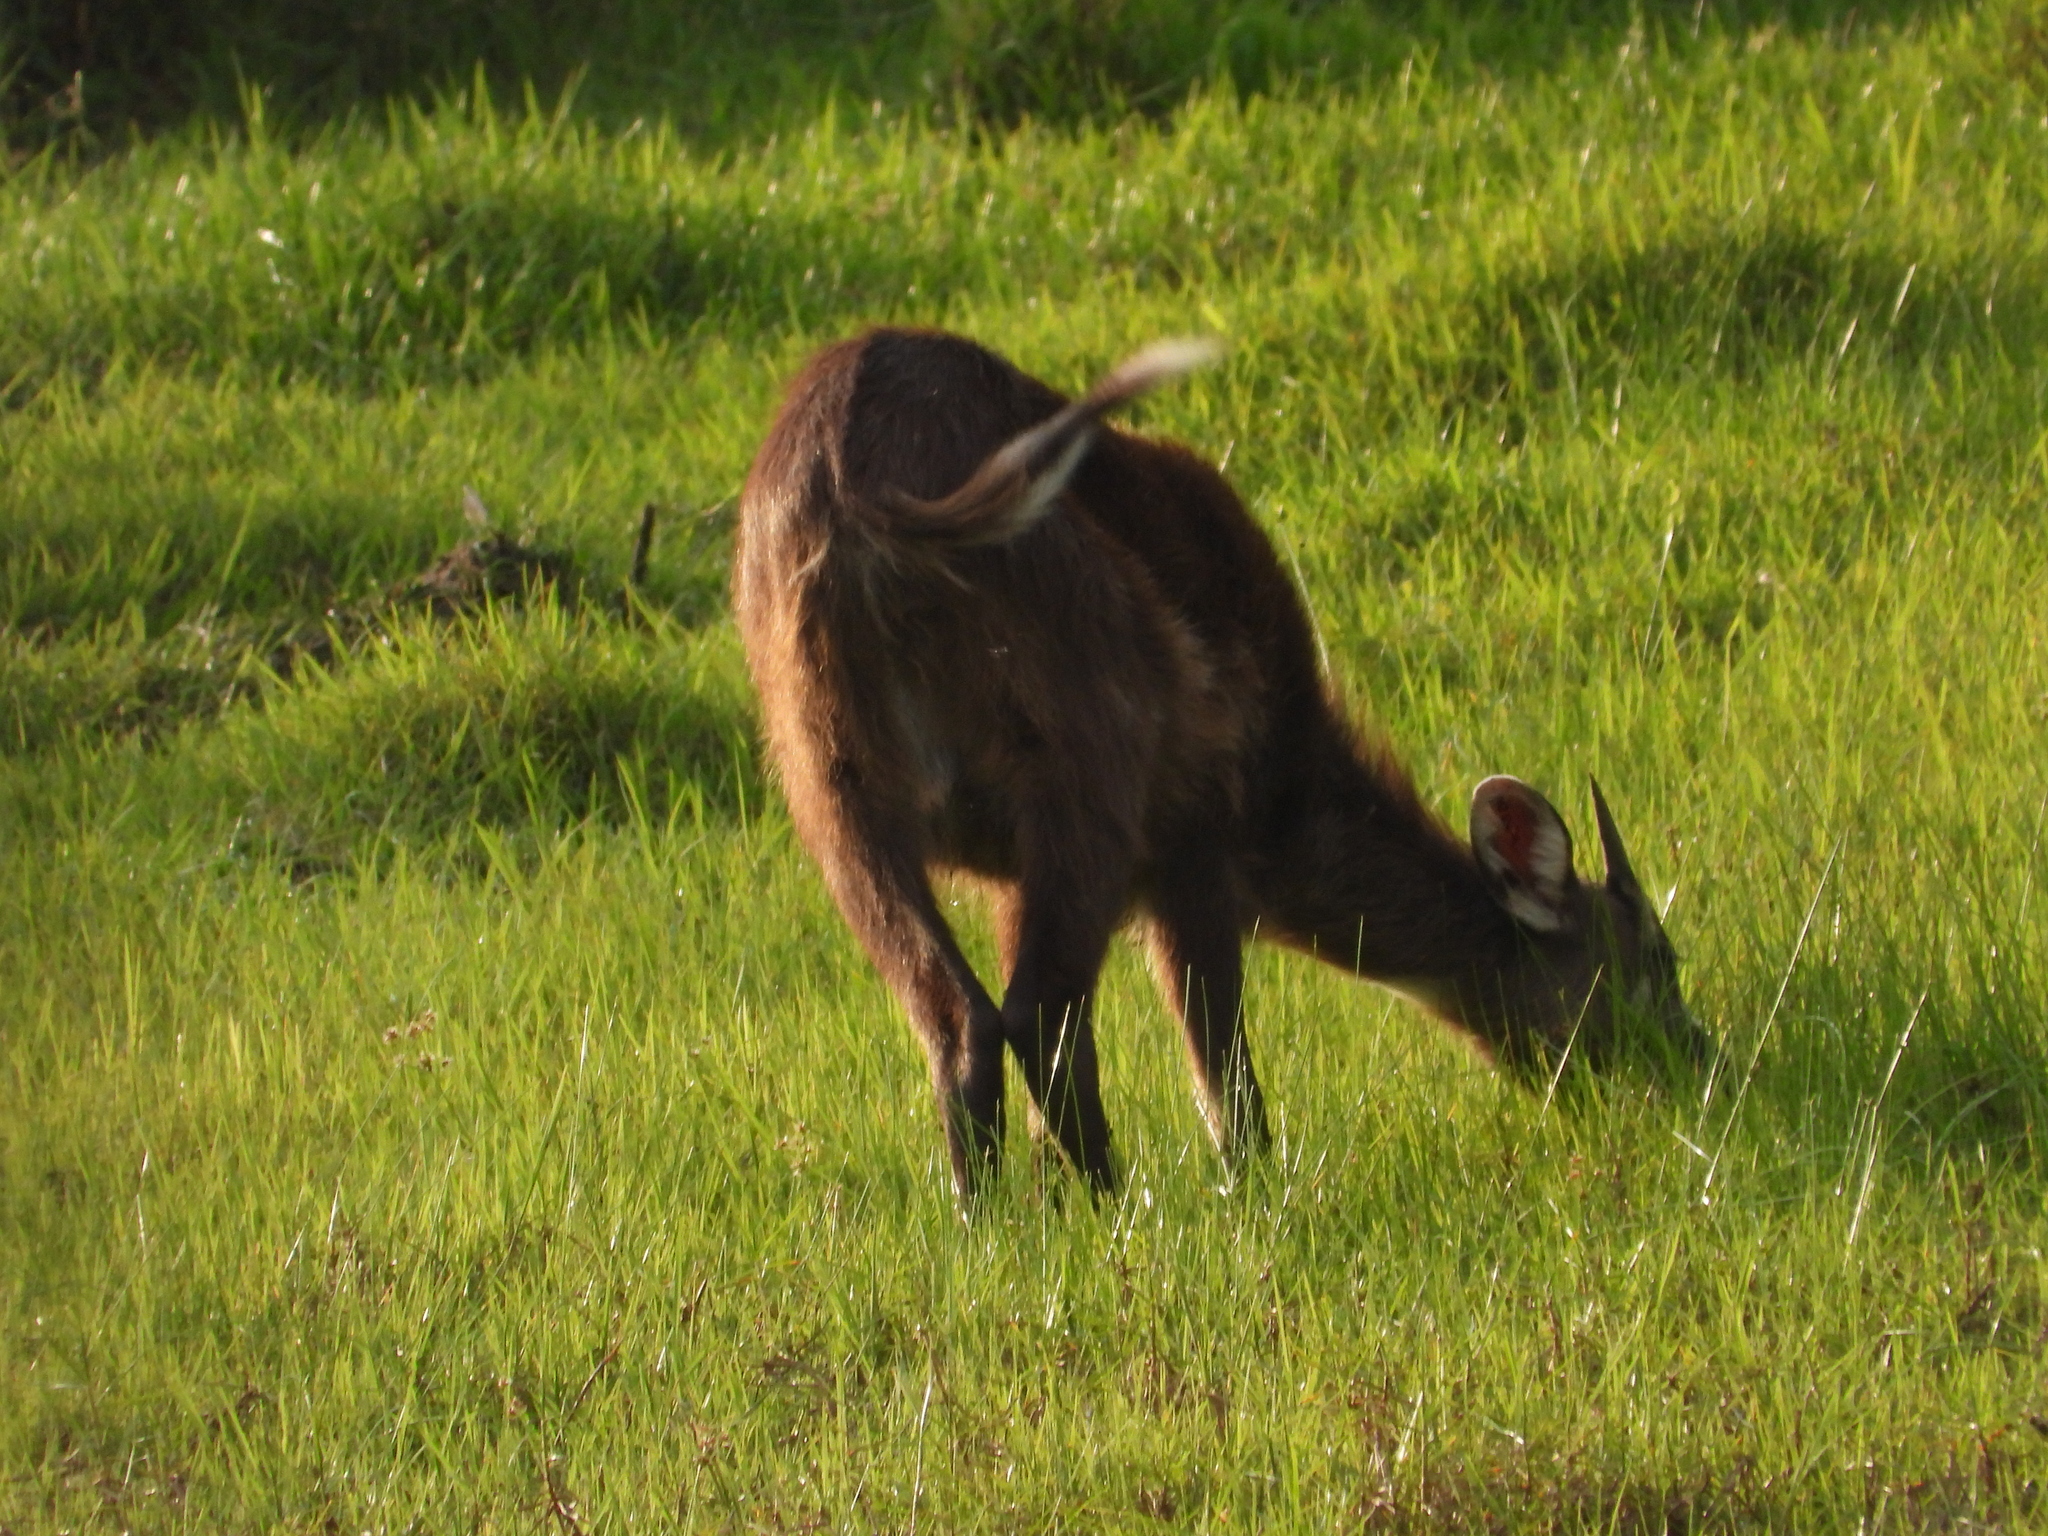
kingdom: Animalia
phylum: Chordata
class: Mammalia
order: Artiodactyla
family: Bovidae
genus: Tragelaphus
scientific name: Tragelaphus spekii
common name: Sitatunga
